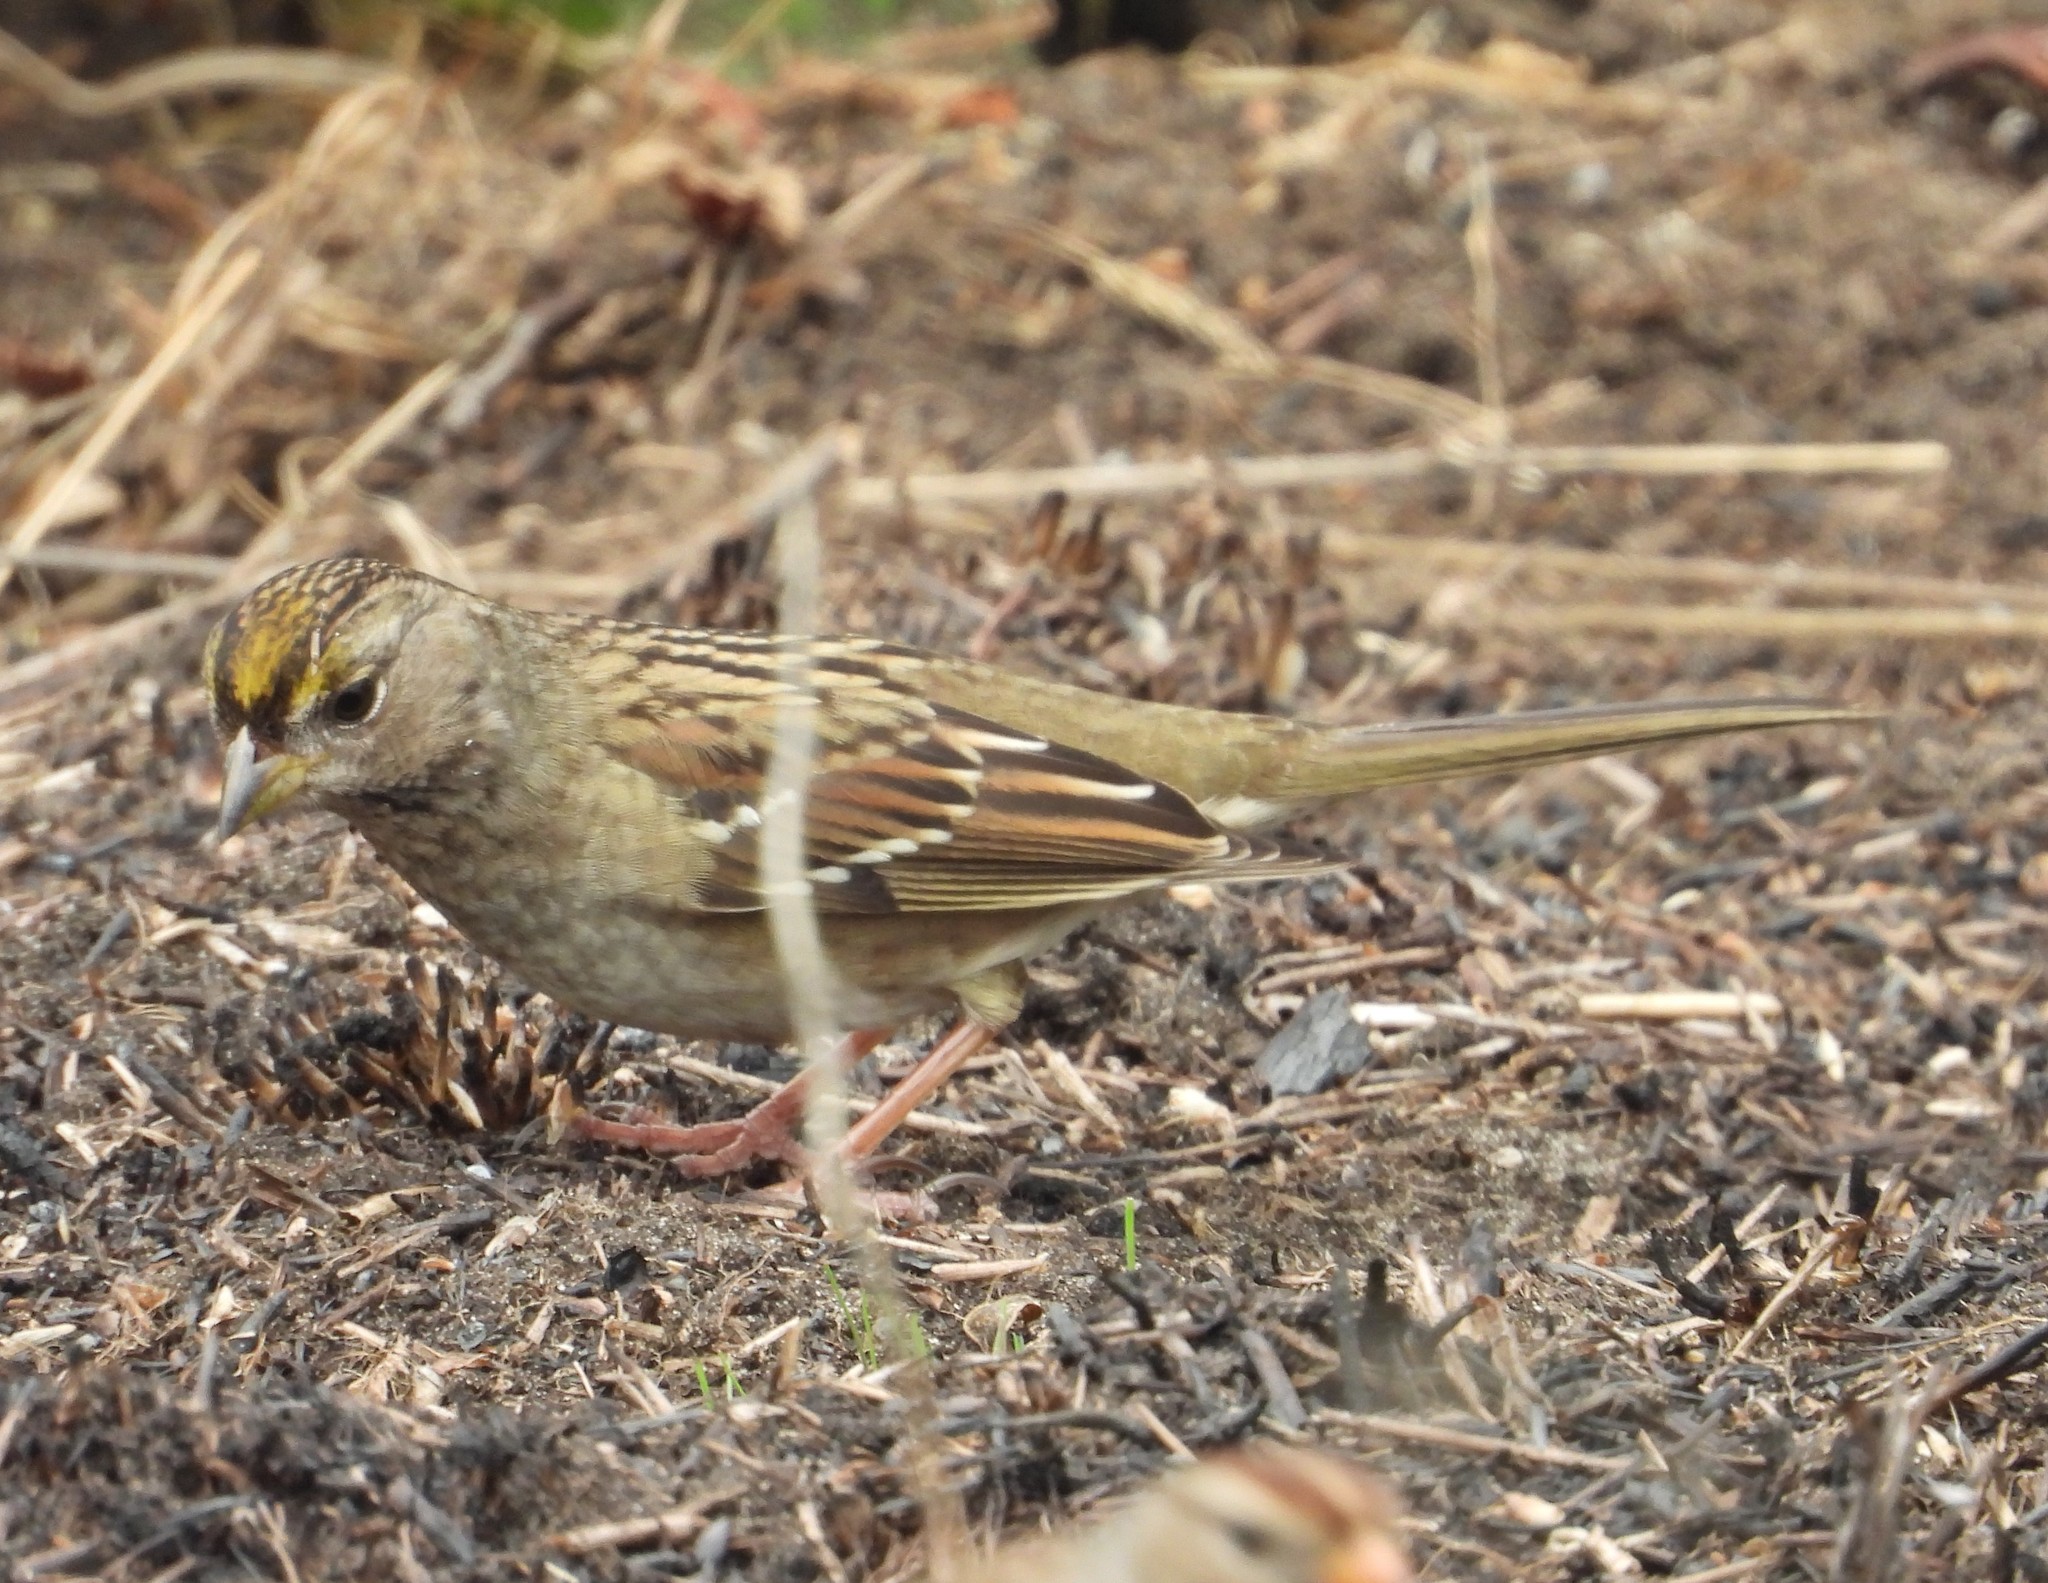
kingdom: Animalia
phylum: Chordata
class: Aves
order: Passeriformes
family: Passerellidae
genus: Zonotrichia
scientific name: Zonotrichia atricapilla
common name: Golden-crowned sparrow
